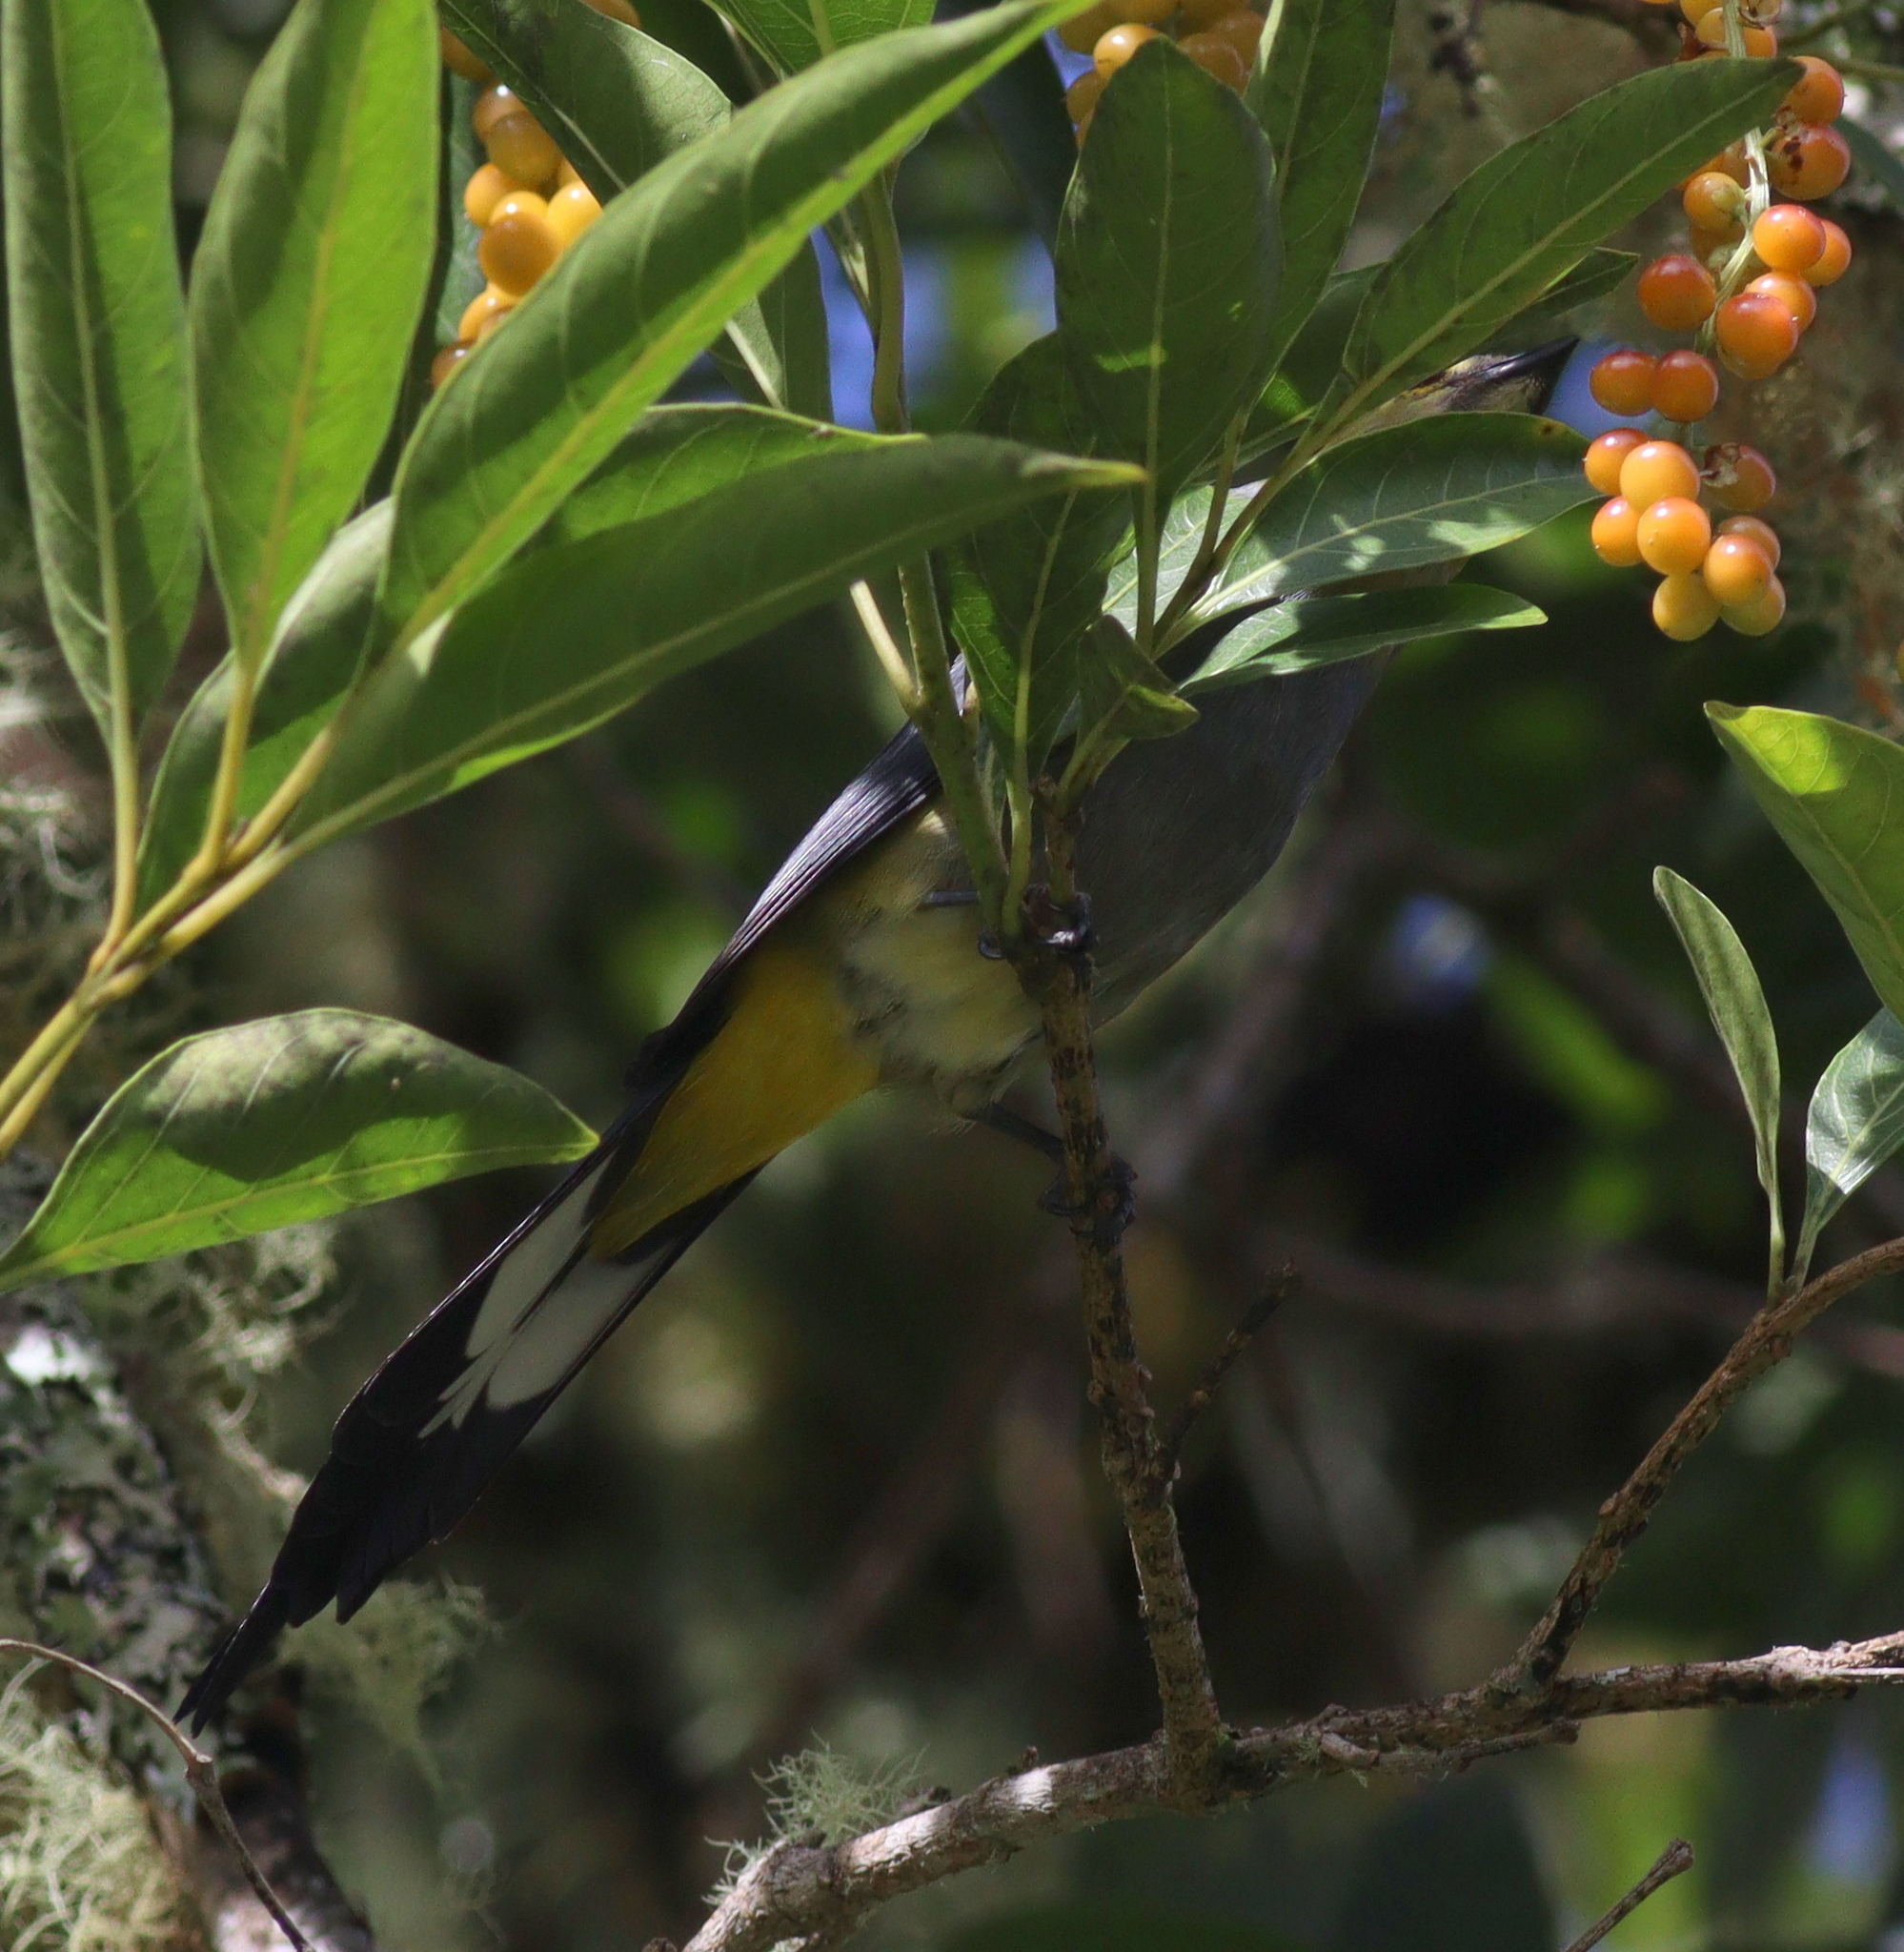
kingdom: Animalia
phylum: Chordata
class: Aves
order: Passeriformes
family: Ptilogonatidae
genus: Ptilogonys
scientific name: Ptilogonys caudatus
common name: Long-tailed silky-flycatcher
